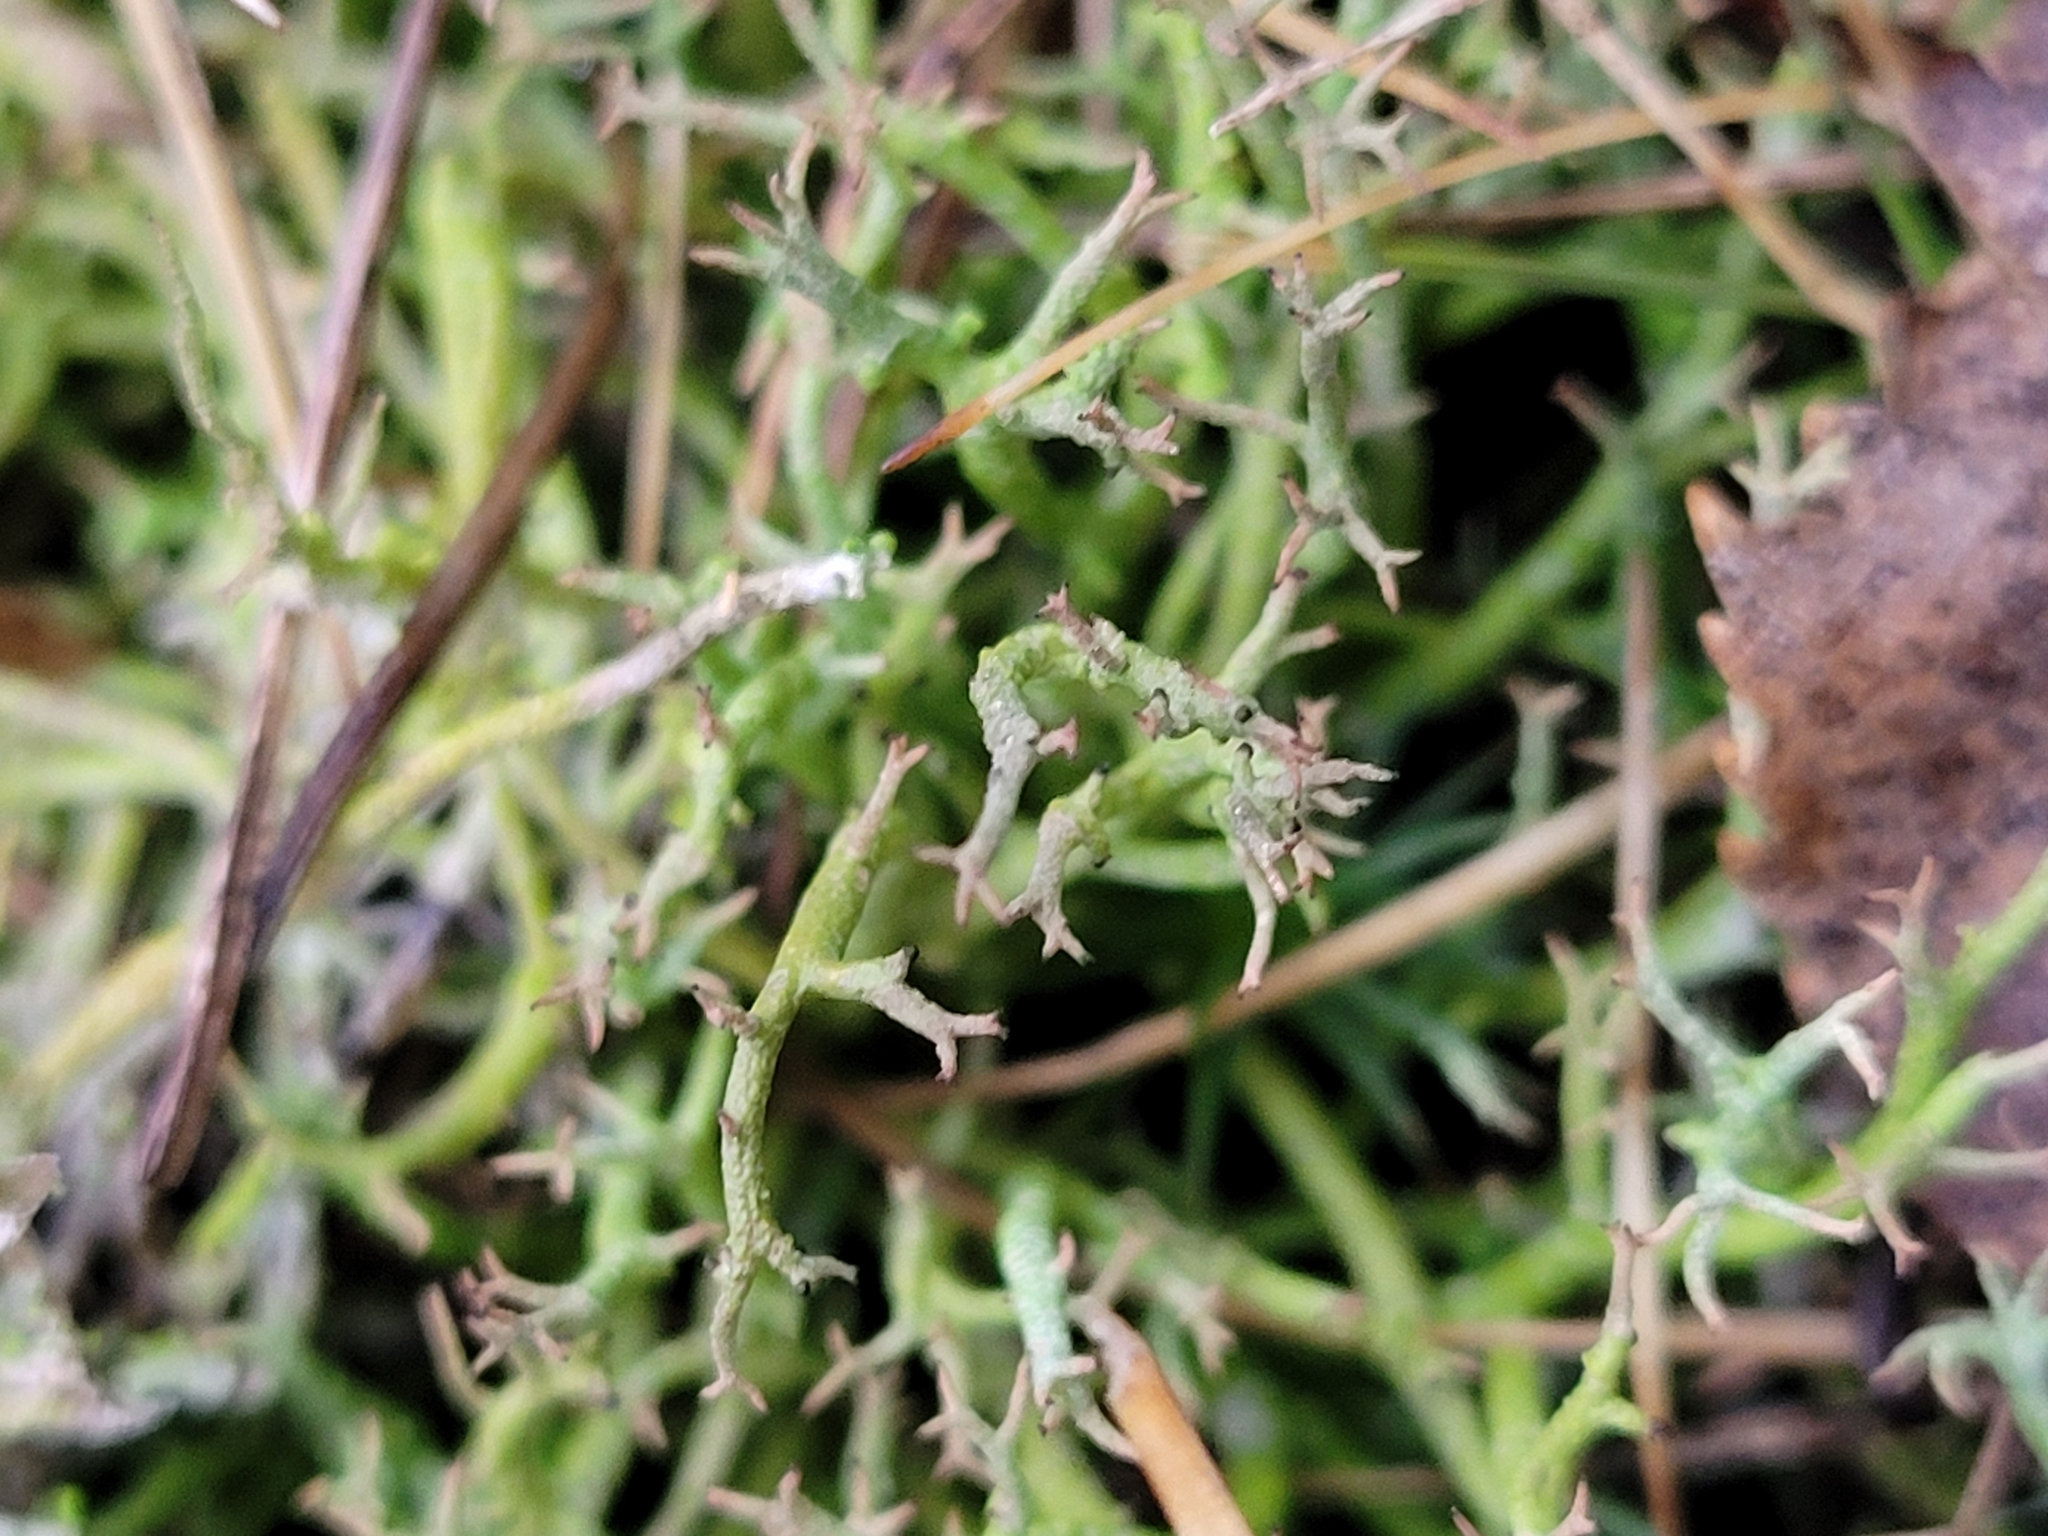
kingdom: Fungi
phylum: Ascomycota
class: Lecanoromycetes
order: Lecanorales
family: Cladoniaceae
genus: Cladonia
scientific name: Cladonia furcata
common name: Many-forked cladonia
